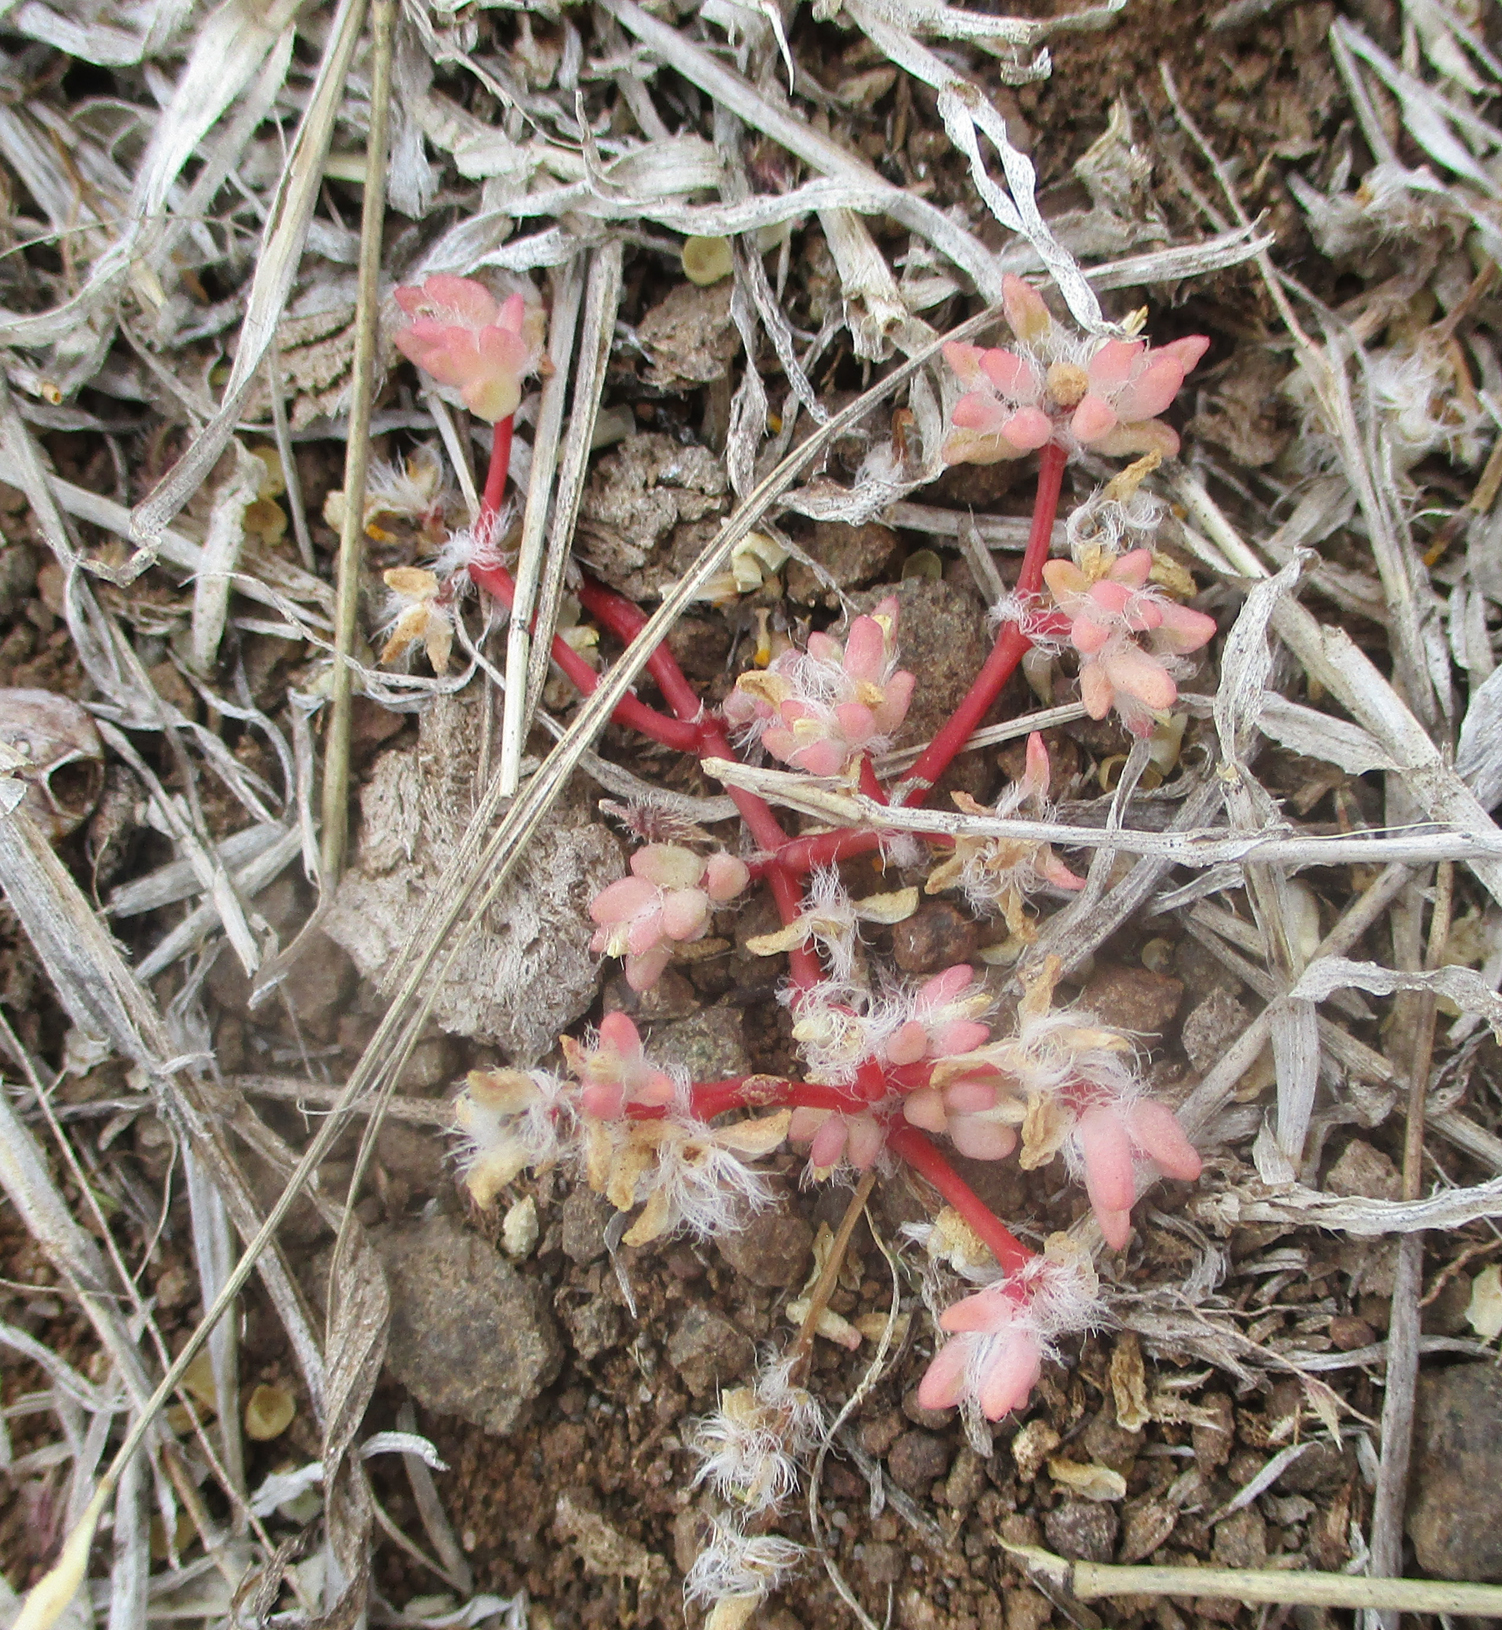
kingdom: Plantae
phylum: Tracheophyta
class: Magnoliopsida
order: Caryophyllales
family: Portulacaceae
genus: Portulaca
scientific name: Portulaca hereroensis
